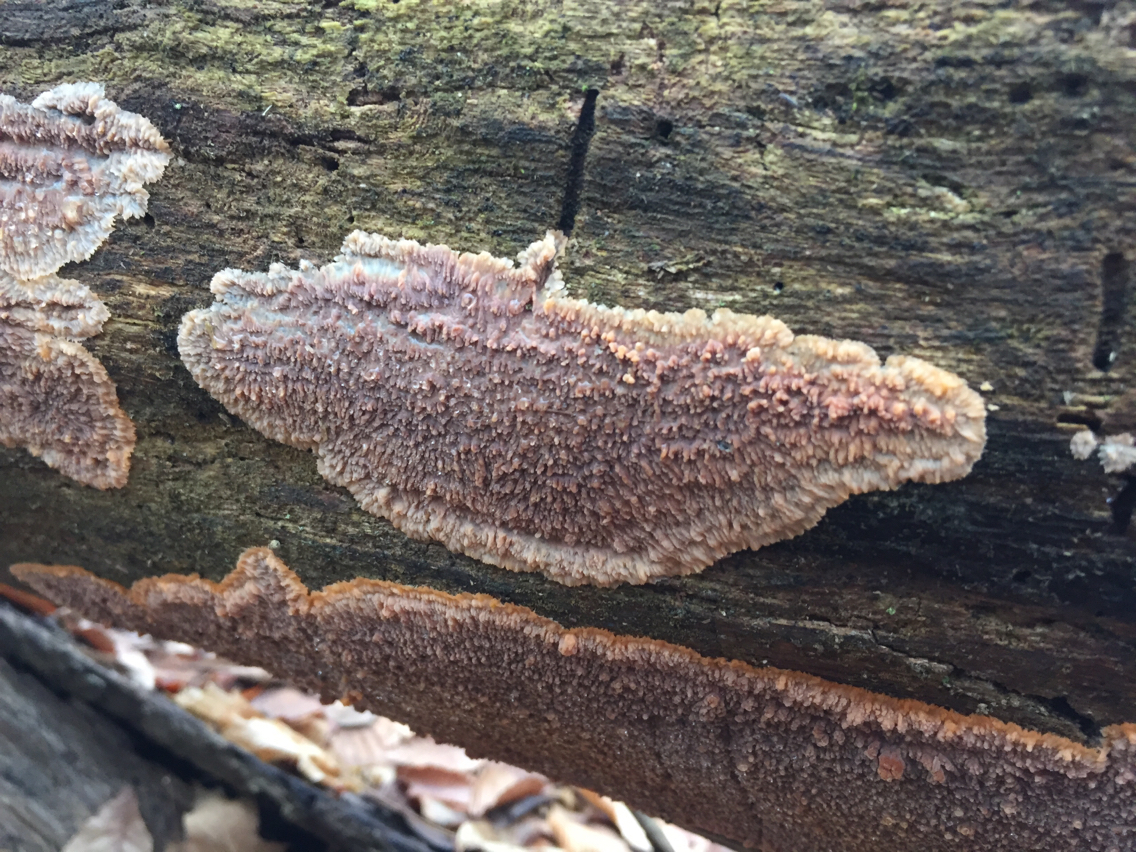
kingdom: Fungi
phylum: Basidiomycota
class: Agaricomycetes
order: Polyporales
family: Meruliaceae
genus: Phlebia
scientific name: Phlebia radiata
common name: Wrinkled crust
